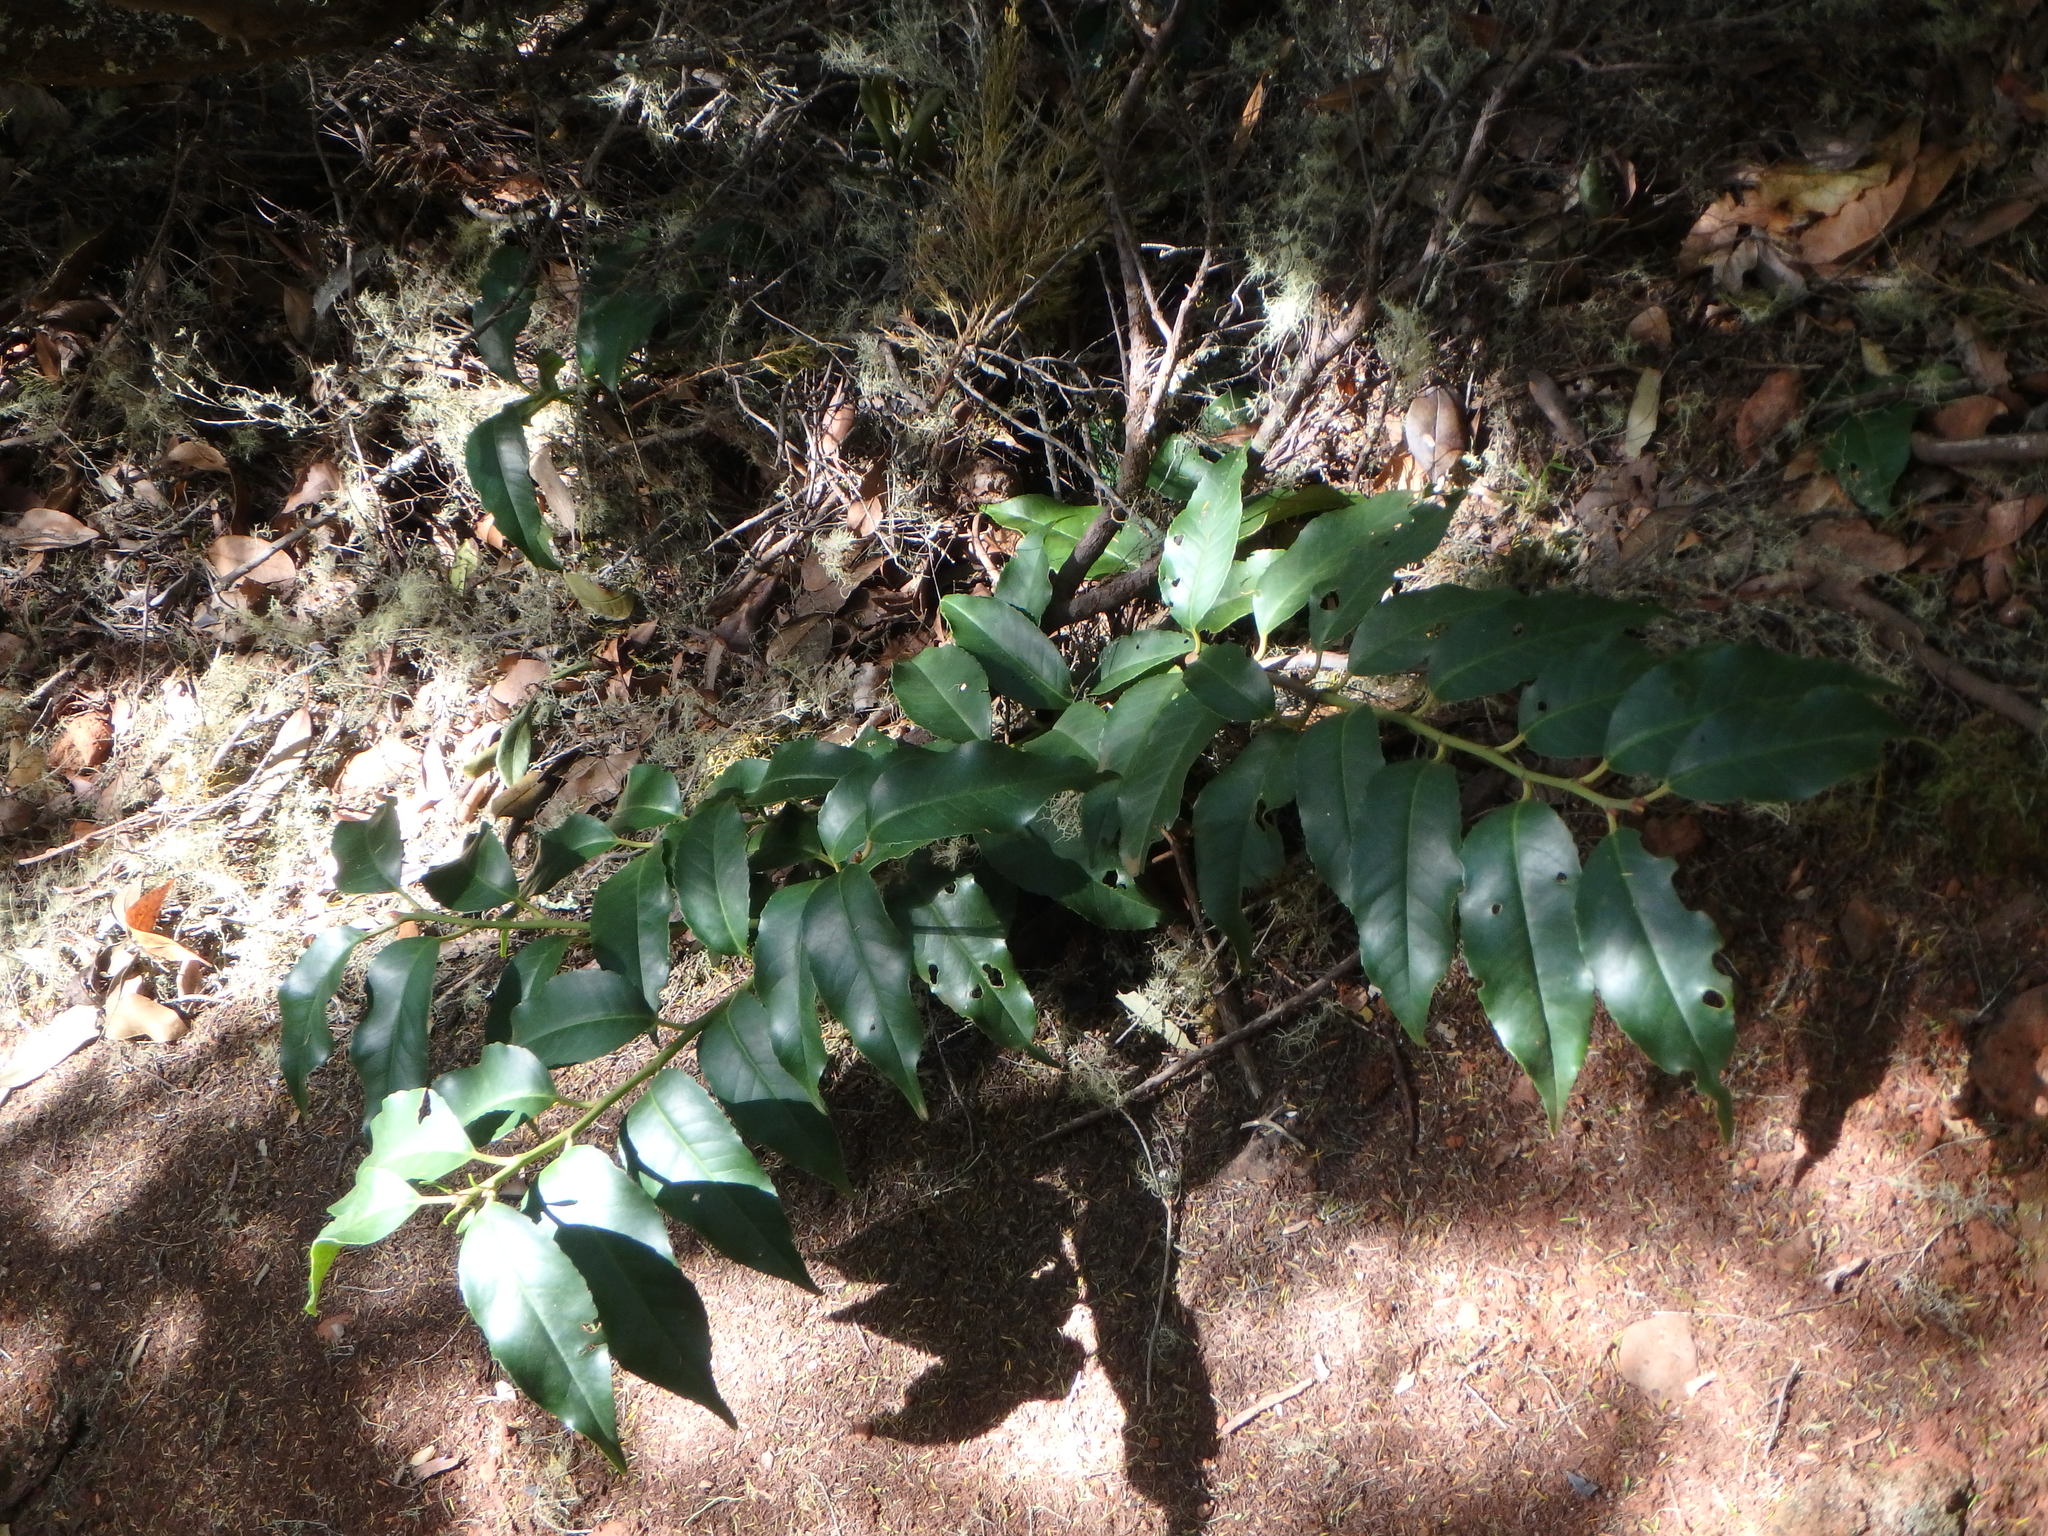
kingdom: Plantae
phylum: Tracheophyta
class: Magnoliopsida
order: Rosales
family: Rosaceae
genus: Prunus
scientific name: Prunus hixa
